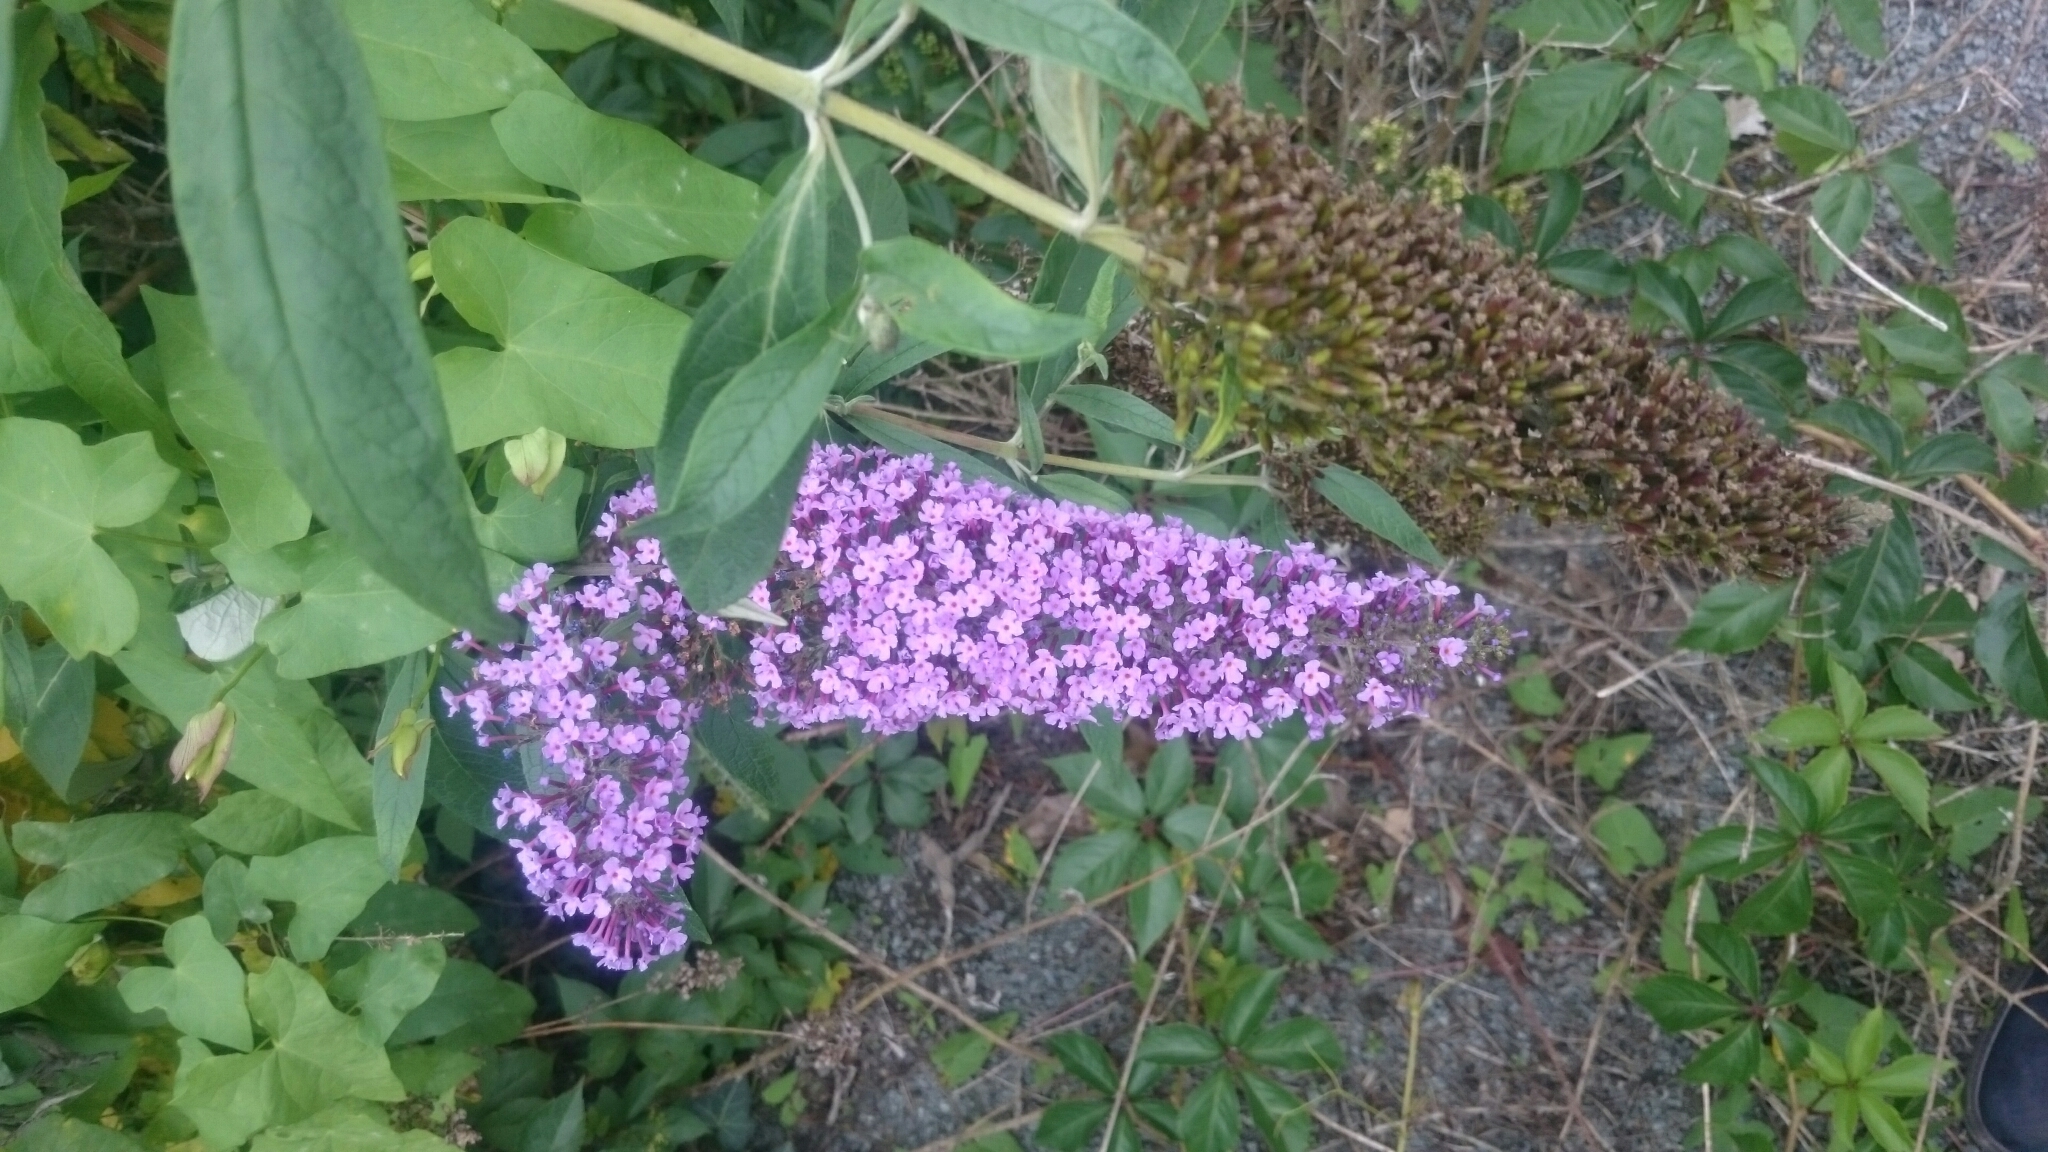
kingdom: Plantae
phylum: Tracheophyta
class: Magnoliopsida
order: Lamiales
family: Scrophulariaceae
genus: Buddleja
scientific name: Buddleja davidii
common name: Butterfly-bush
